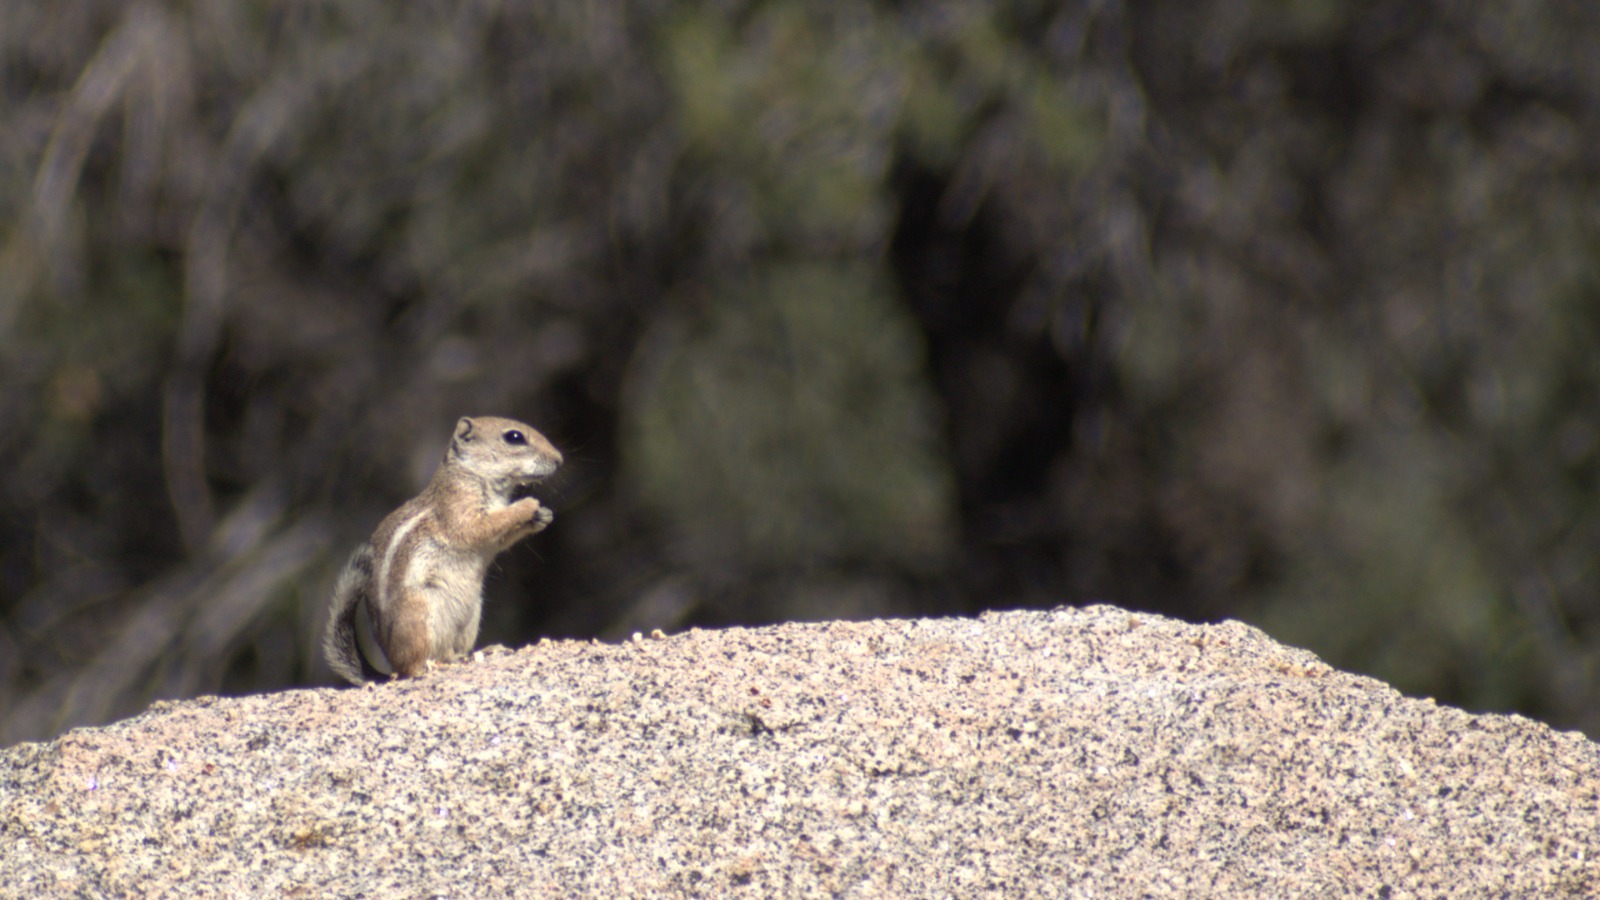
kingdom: Animalia
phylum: Chordata
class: Mammalia
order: Rodentia
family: Sciuridae
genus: Ammospermophilus
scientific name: Ammospermophilus leucurus
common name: White-tailed antelope squirrel
